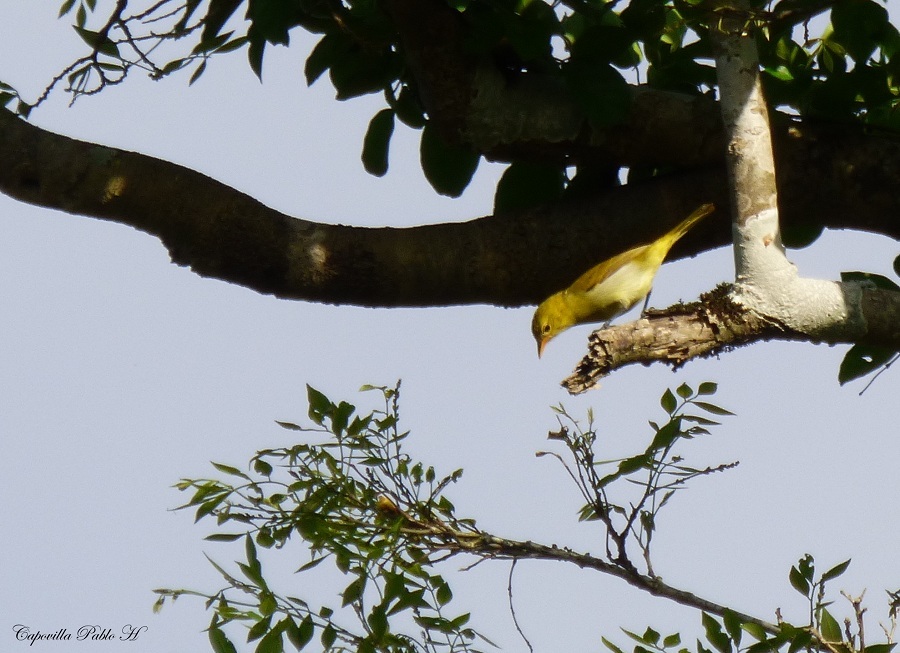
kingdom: Animalia
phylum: Chordata
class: Aves
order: Passeriformes
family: Thraupidae
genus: Hemithraupis
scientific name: Hemithraupis guira
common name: Guira tanager
